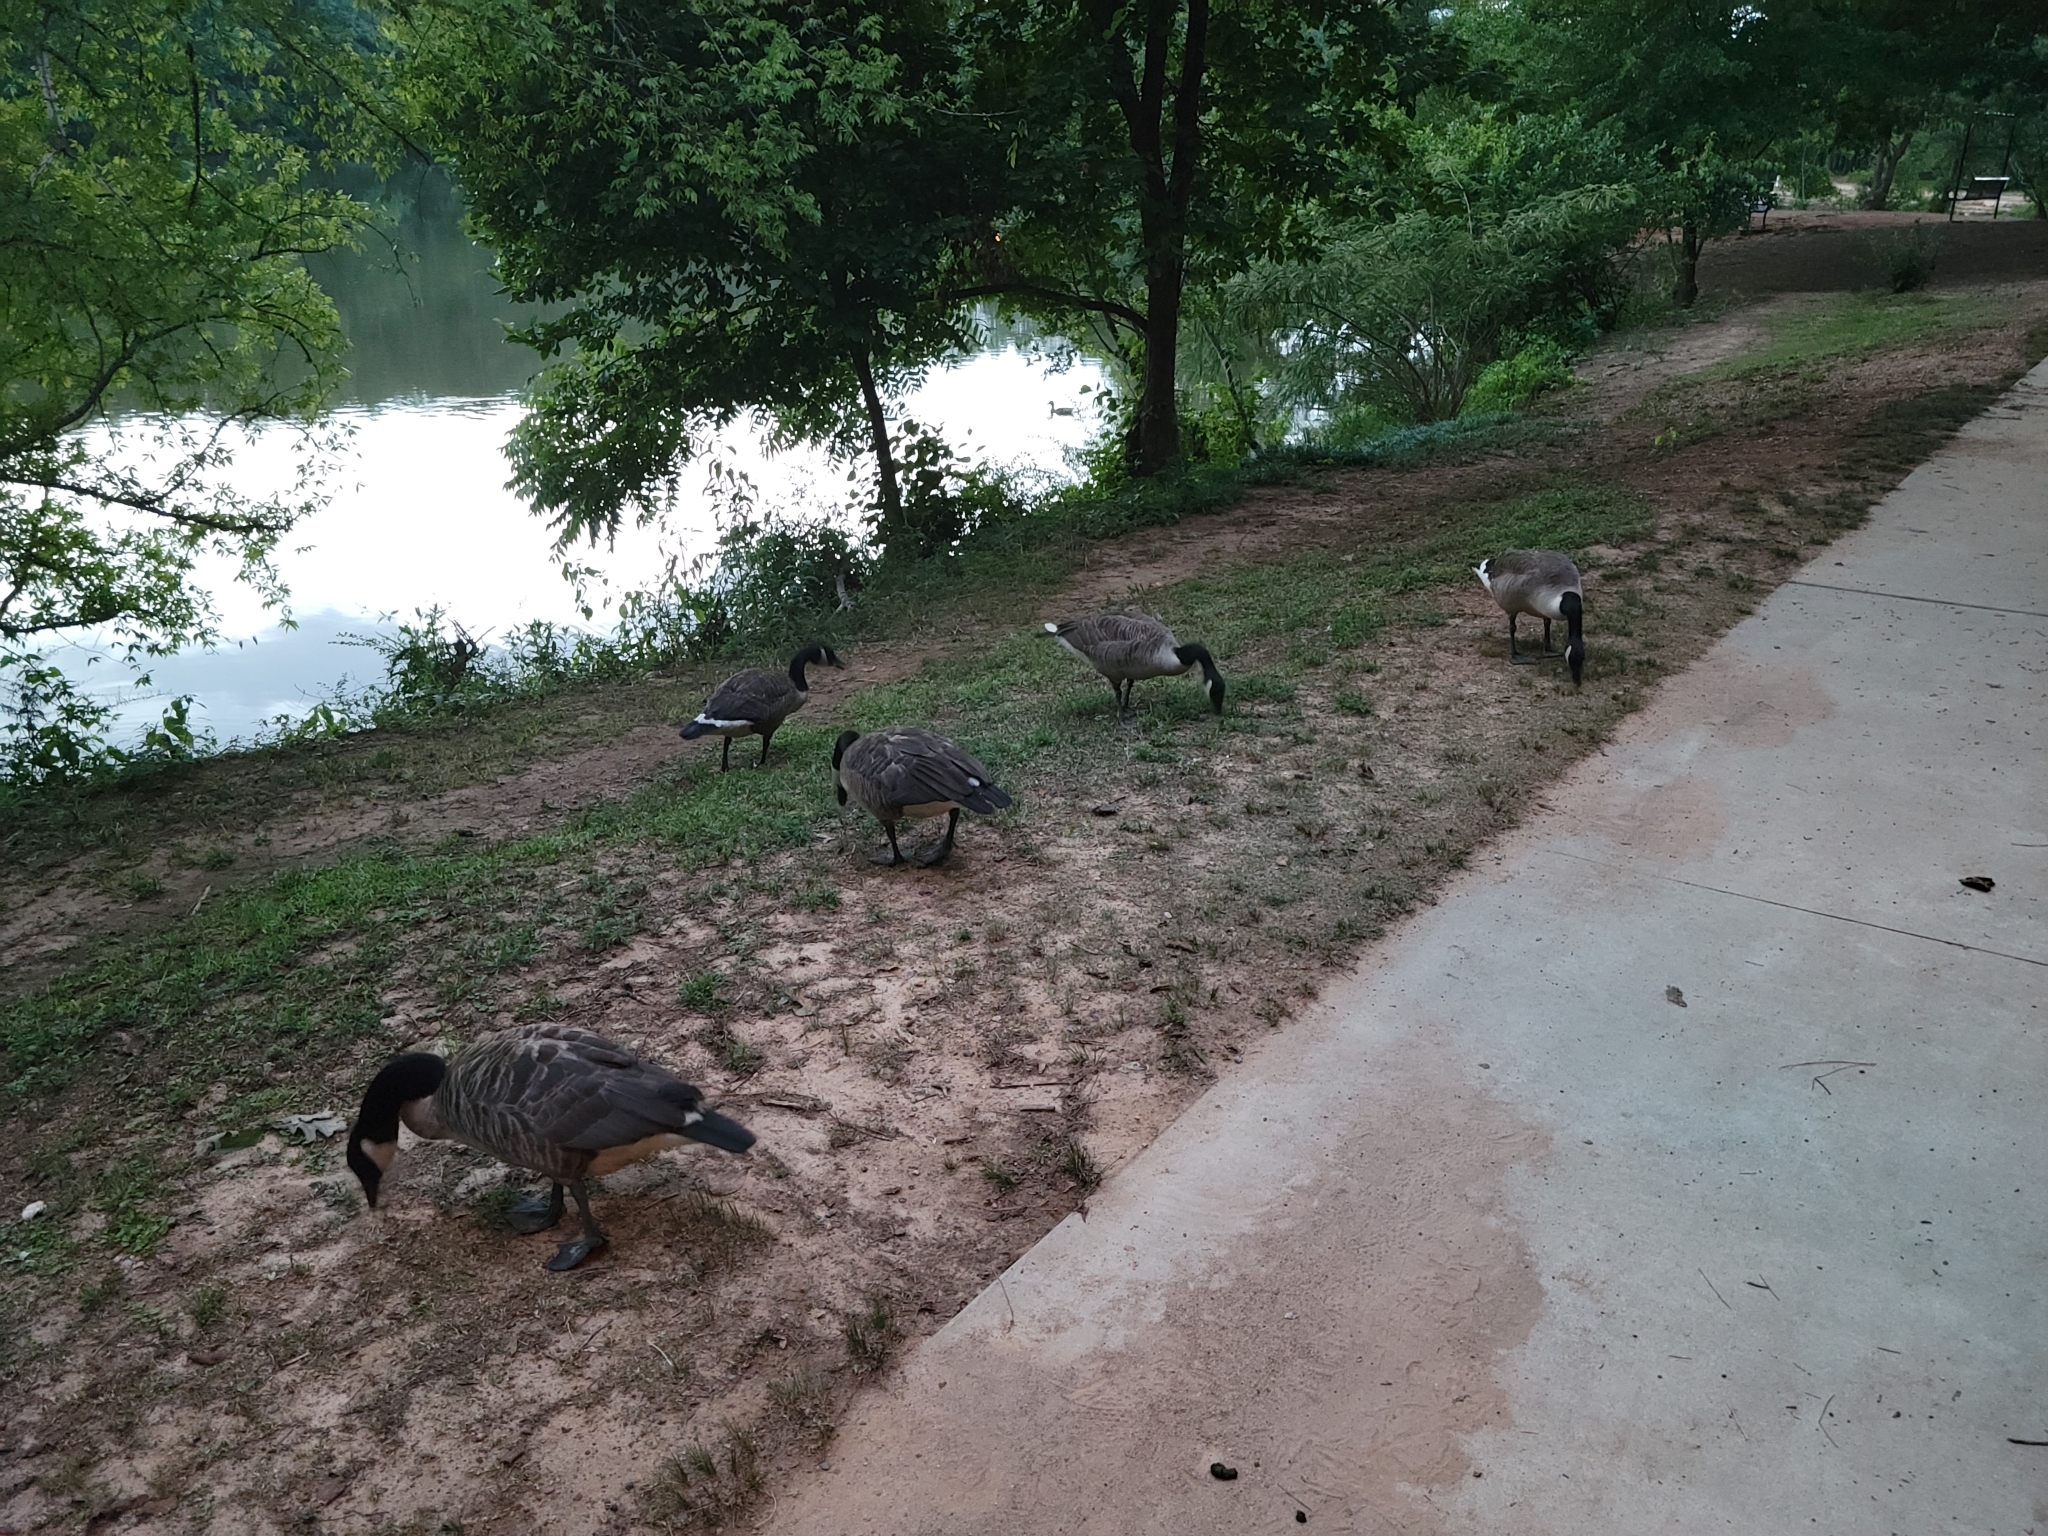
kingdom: Animalia
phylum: Chordata
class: Aves
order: Anseriformes
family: Anatidae
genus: Branta
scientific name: Branta canadensis
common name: Canada goose
